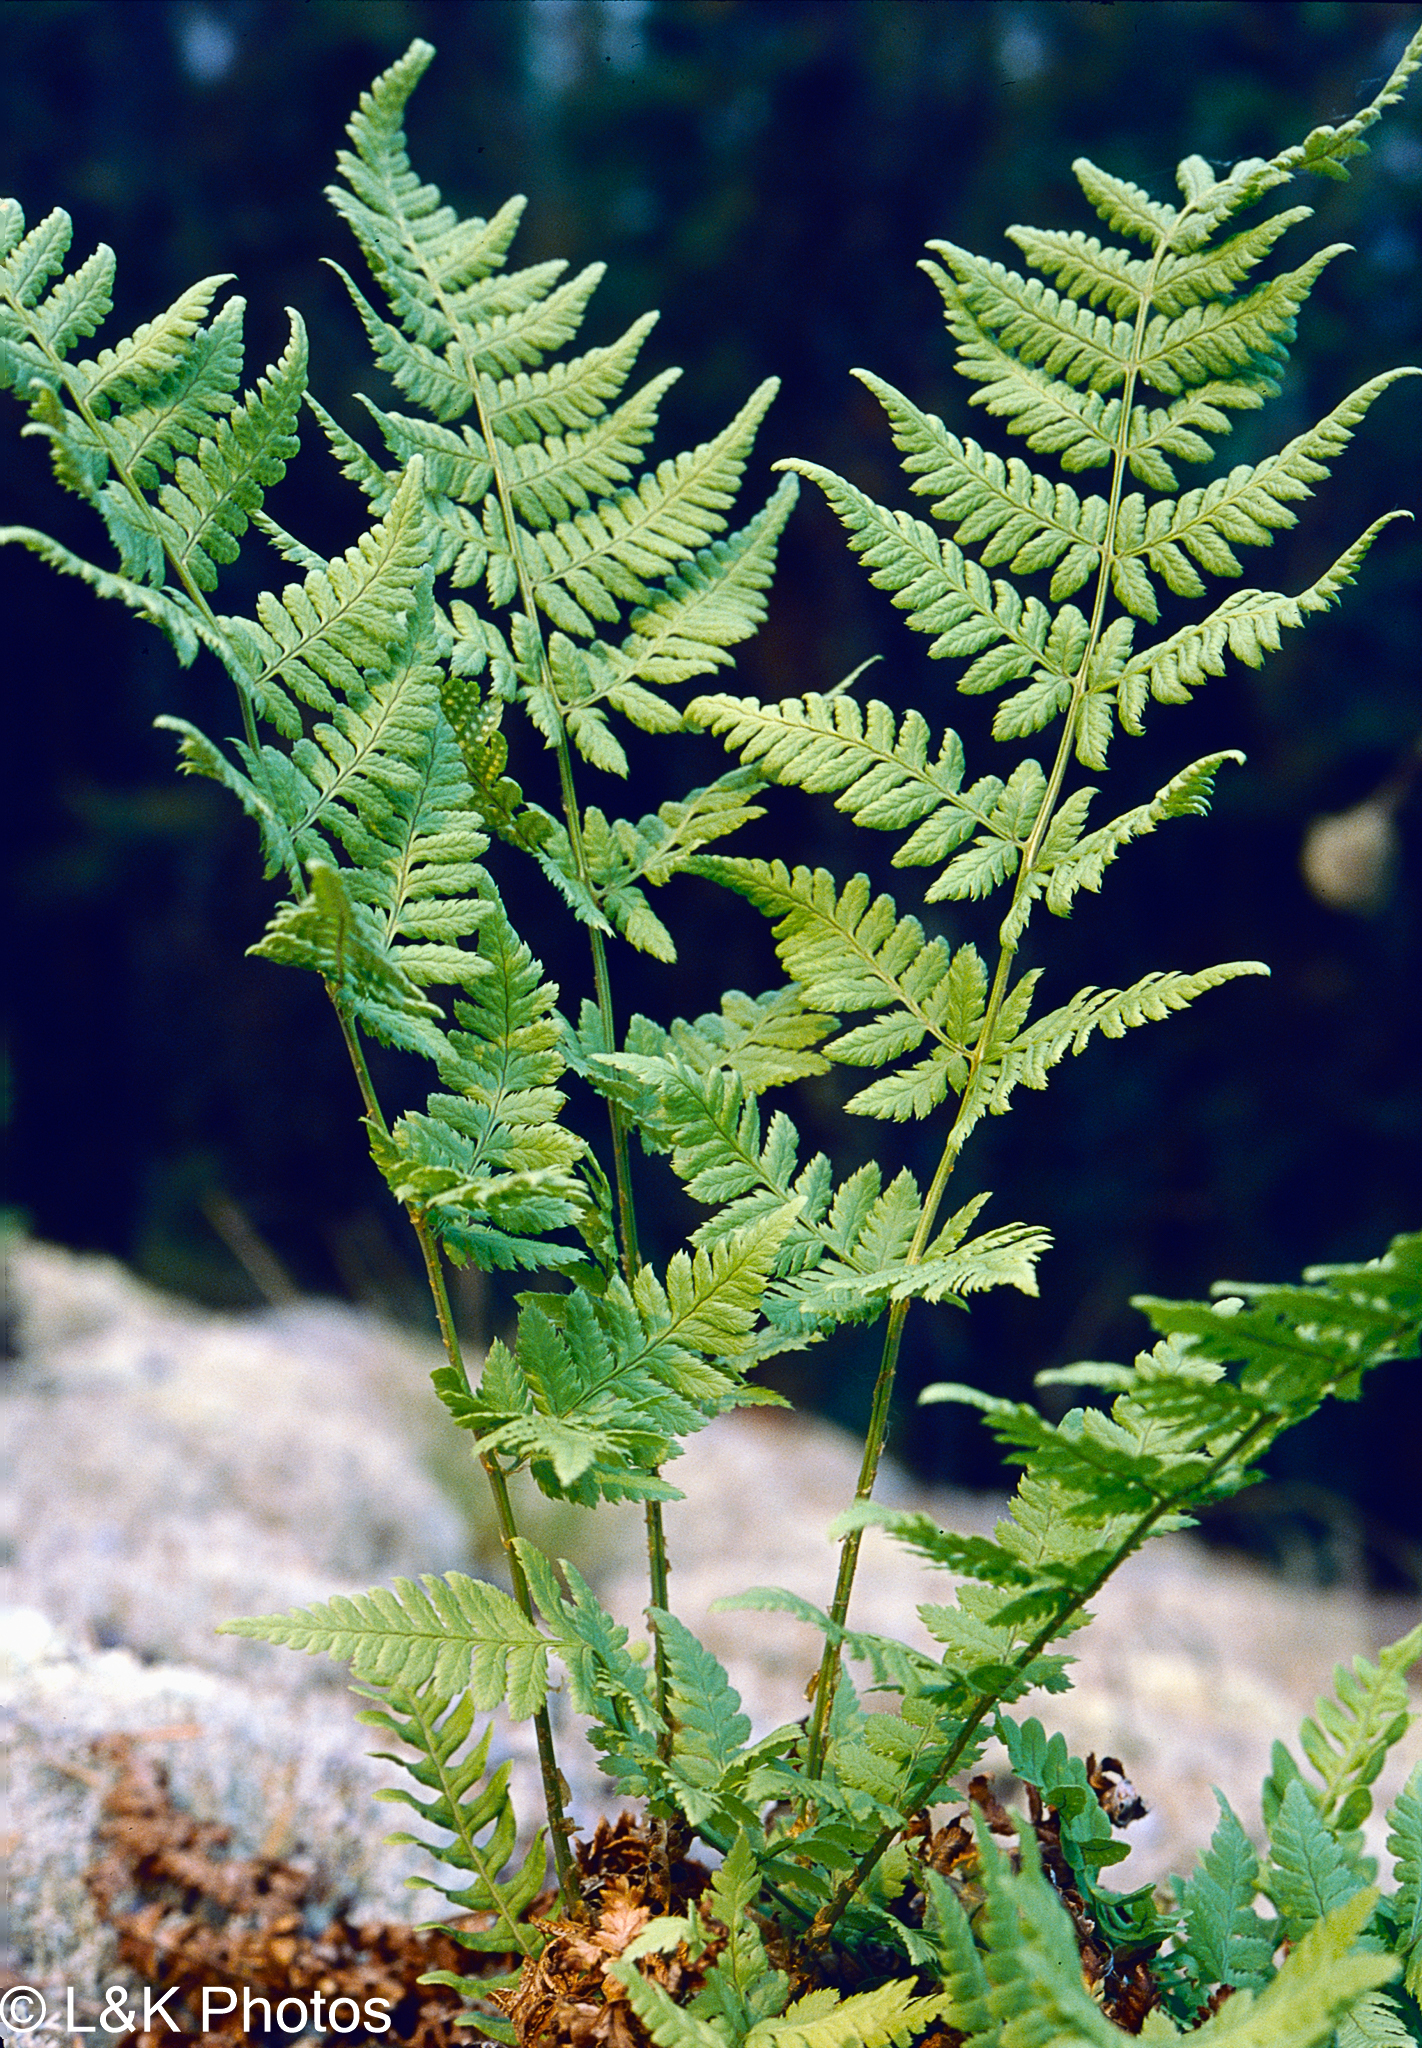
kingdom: Plantae
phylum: Tracheophyta
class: Polypodiopsida
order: Polypodiales
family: Dryopteridaceae
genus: Dryopteris
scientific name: Dryopteris carthusiana
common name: Narrow buckler-fern
